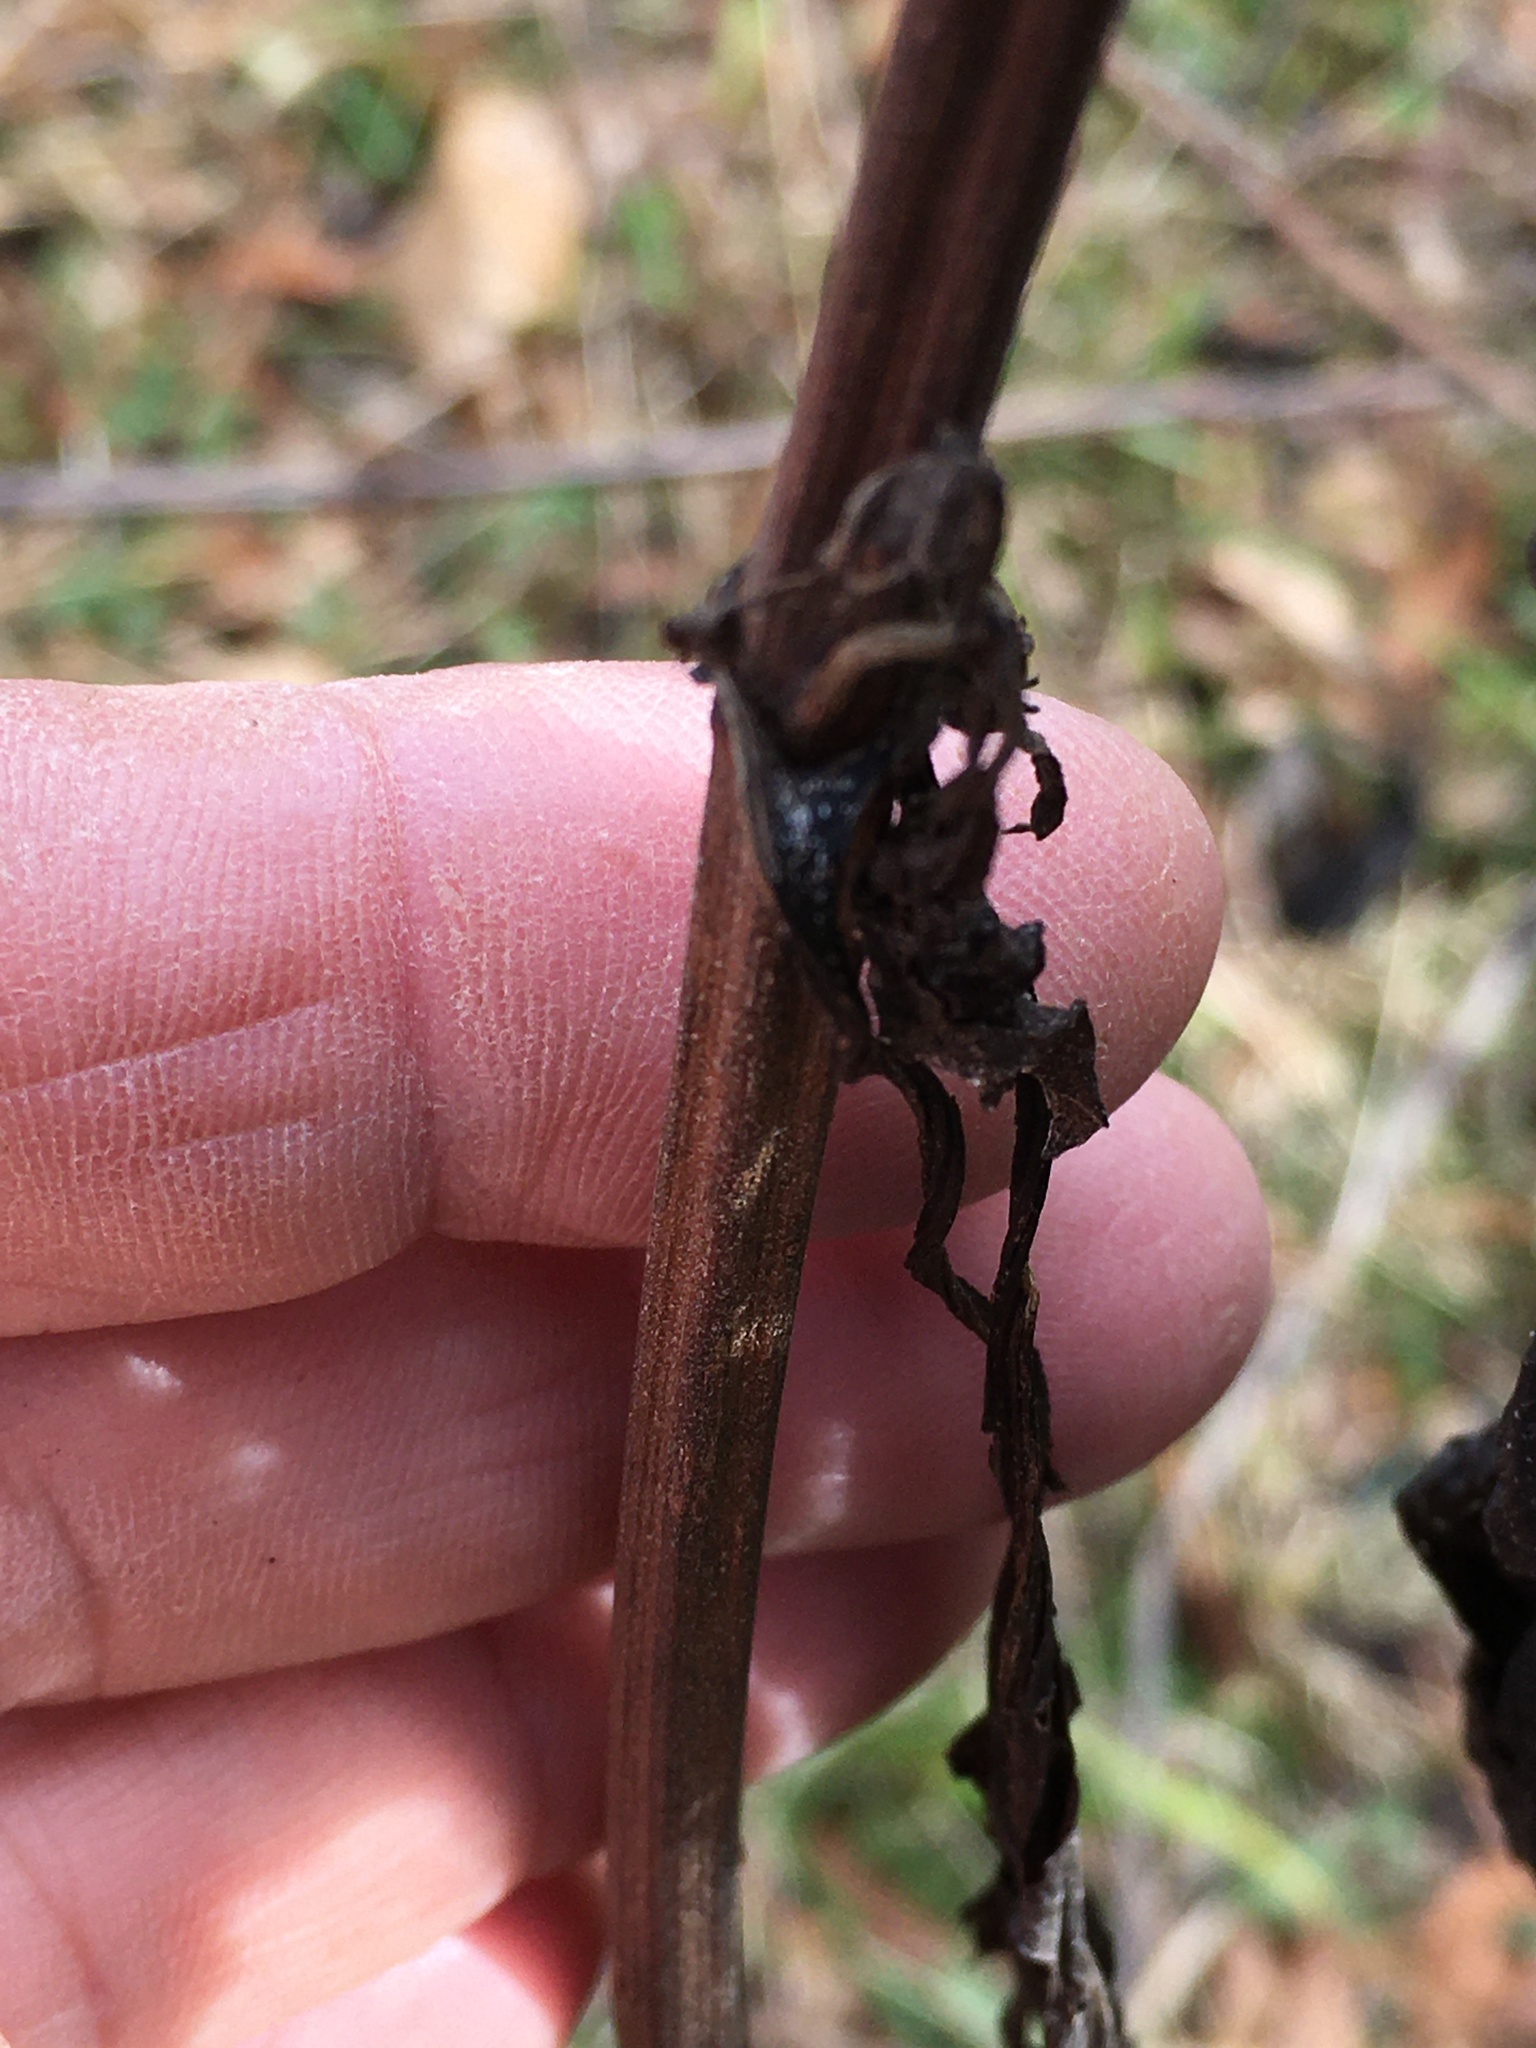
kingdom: Plantae
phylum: Tracheophyta
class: Magnoliopsida
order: Asterales
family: Asteraceae
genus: Smallanthus
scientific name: Smallanthus uvedalia
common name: Bear's-foot
